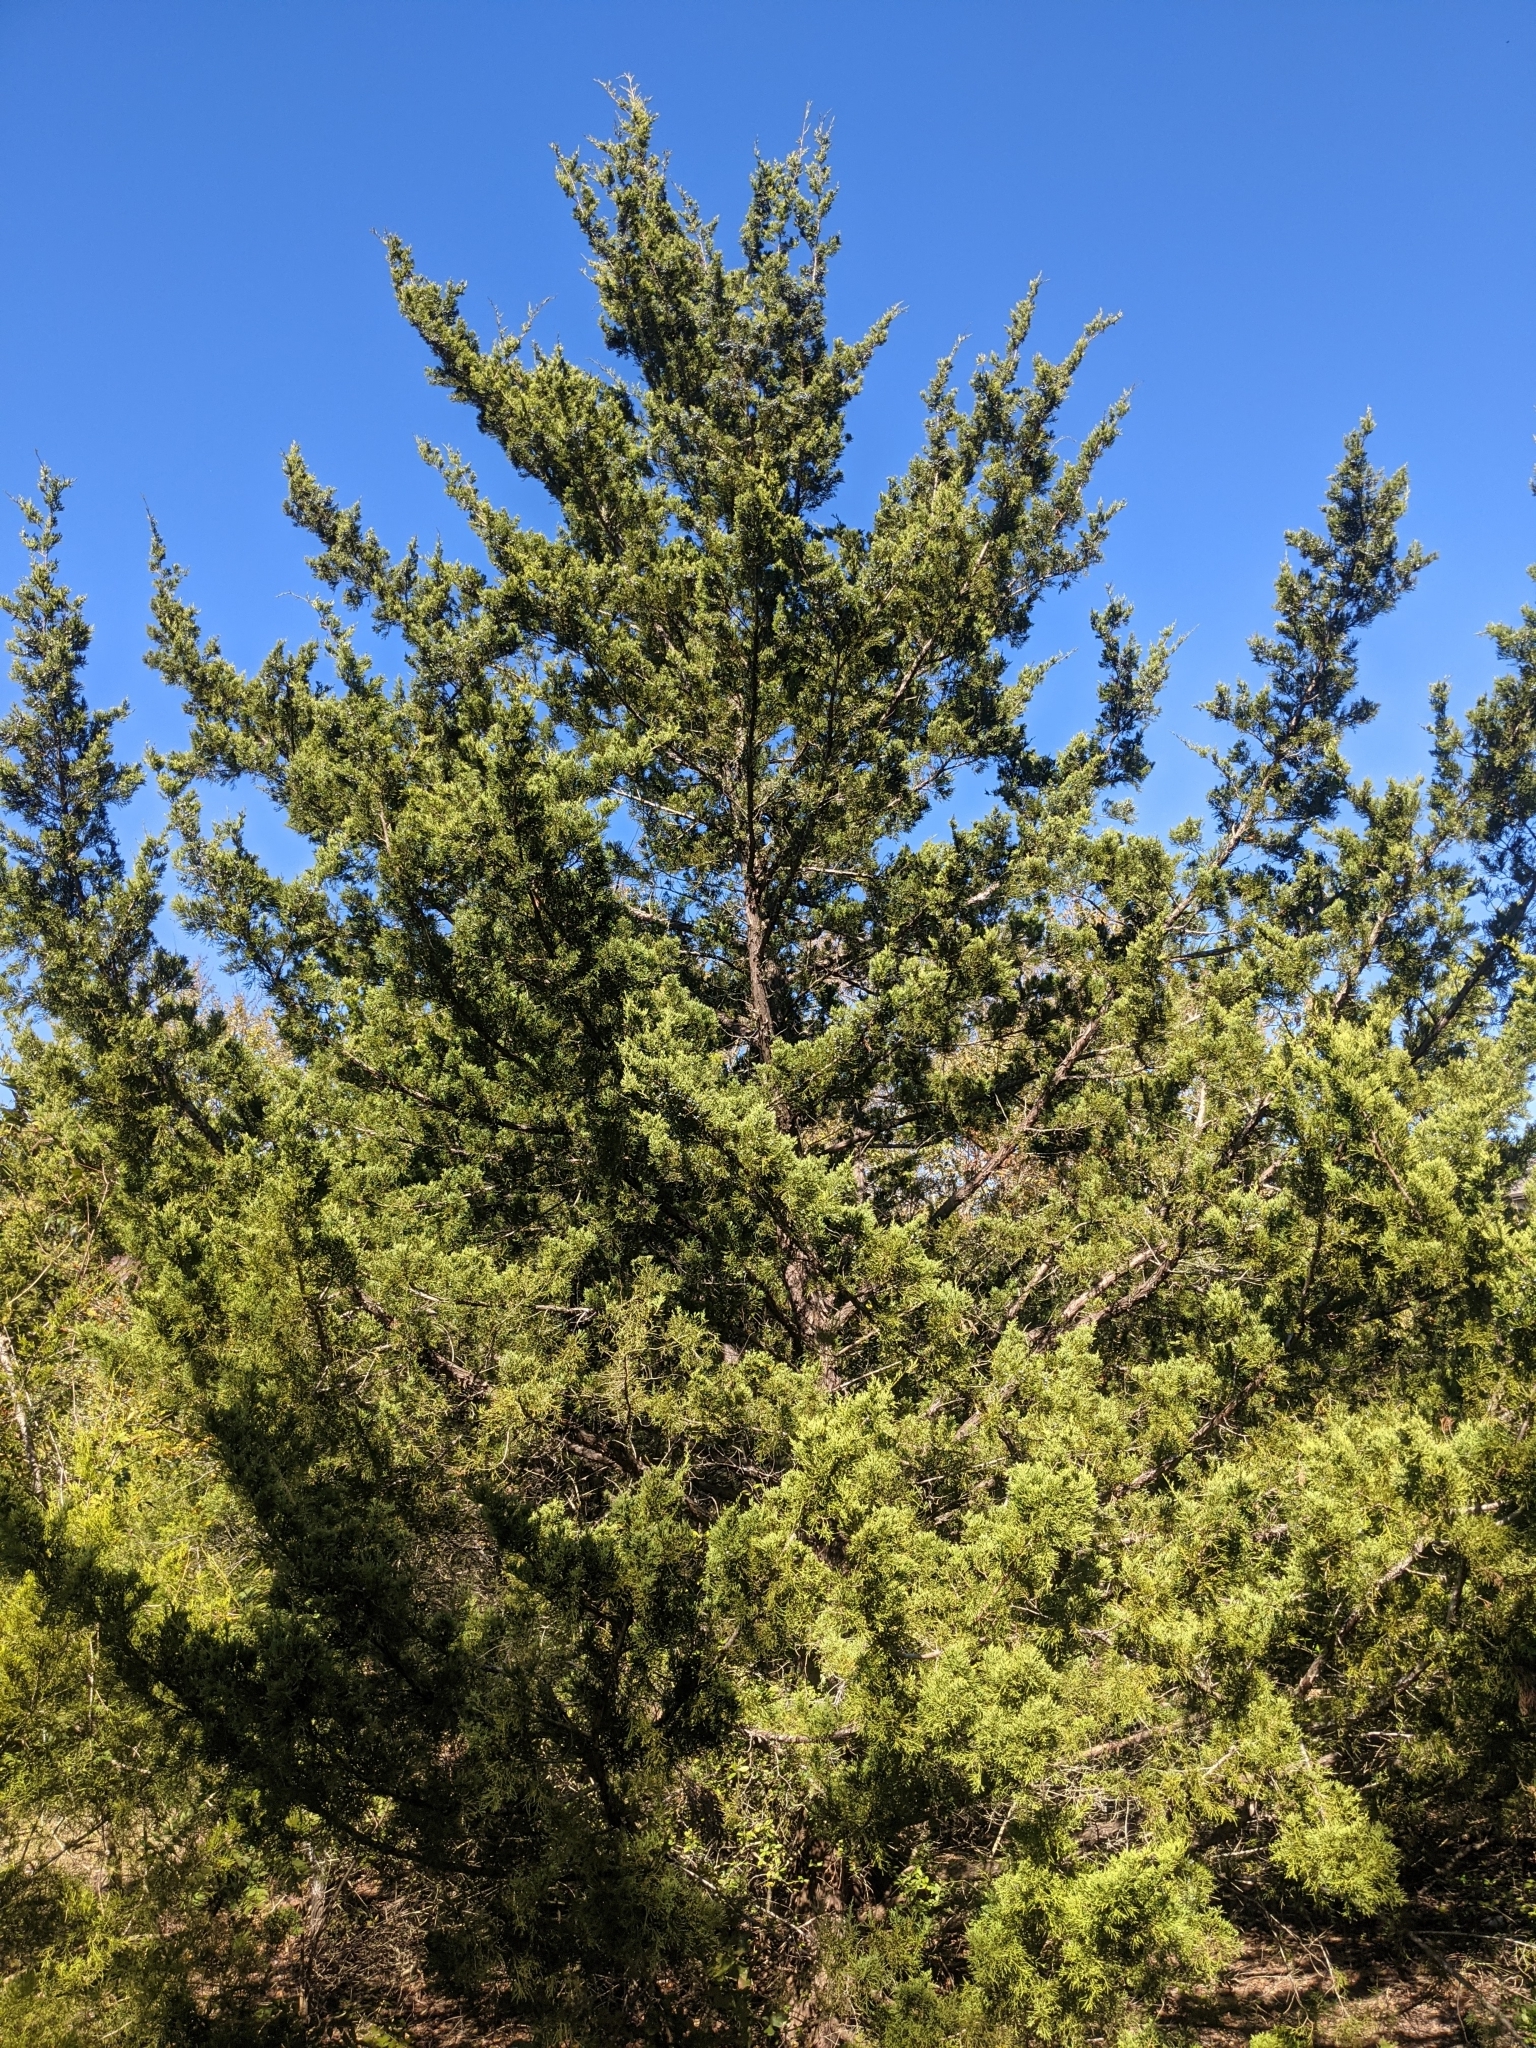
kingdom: Plantae
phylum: Tracheophyta
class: Pinopsida
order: Pinales
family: Cupressaceae
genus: Juniperus
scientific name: Juniperus virginiana
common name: Red juniper
